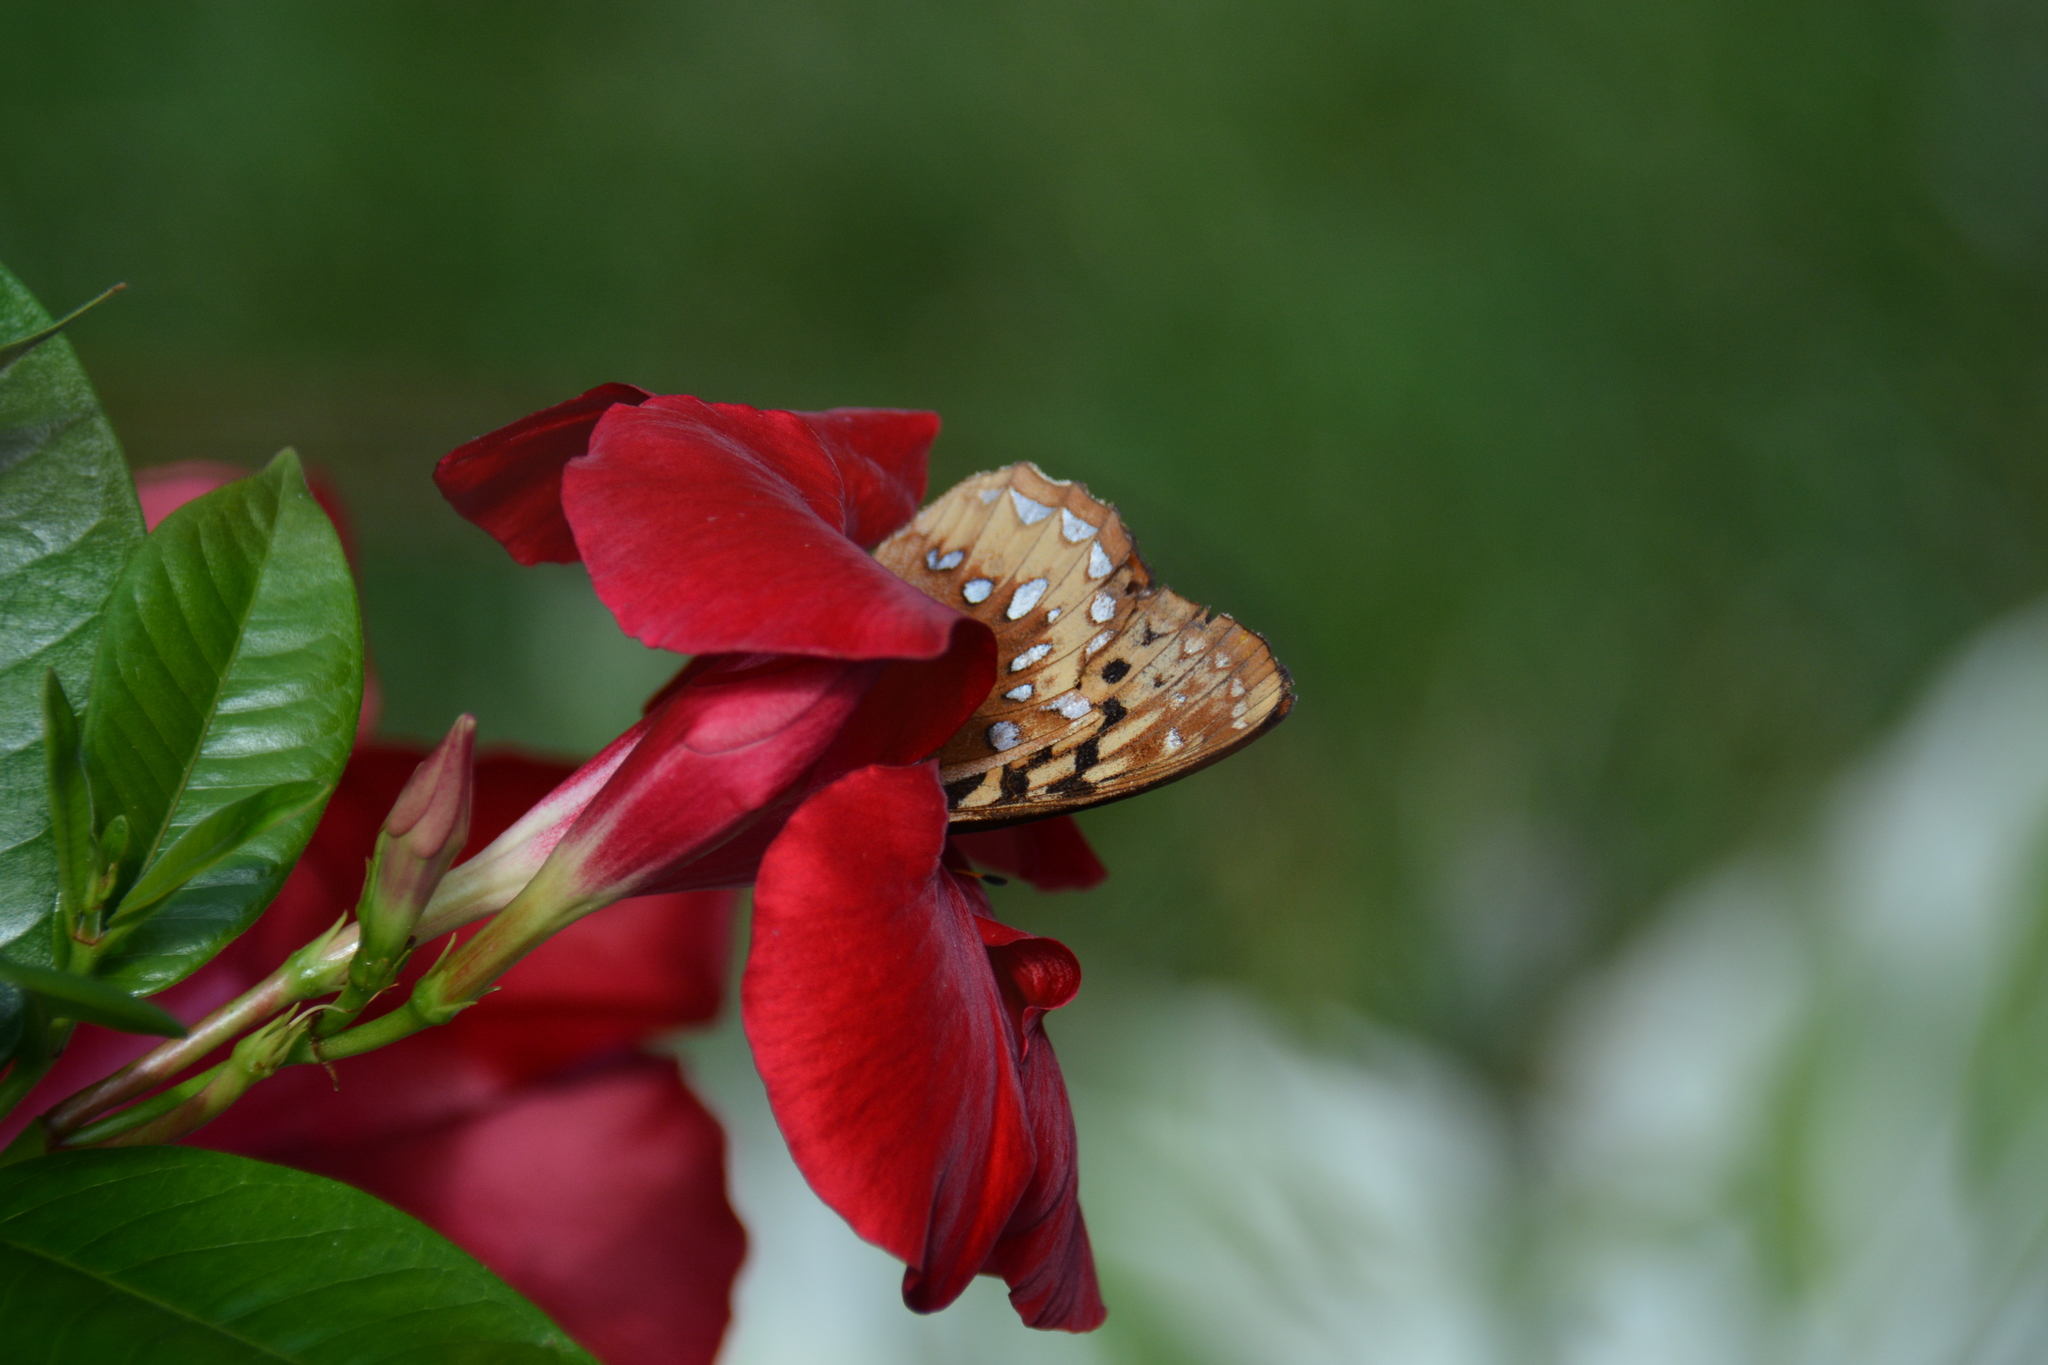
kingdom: Animalia
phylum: Arthropoda
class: Insecta
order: Lepidoptera
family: Nymphalidae
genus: Speyeria
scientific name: Speyeria cybele
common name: Great spangled fritillary
